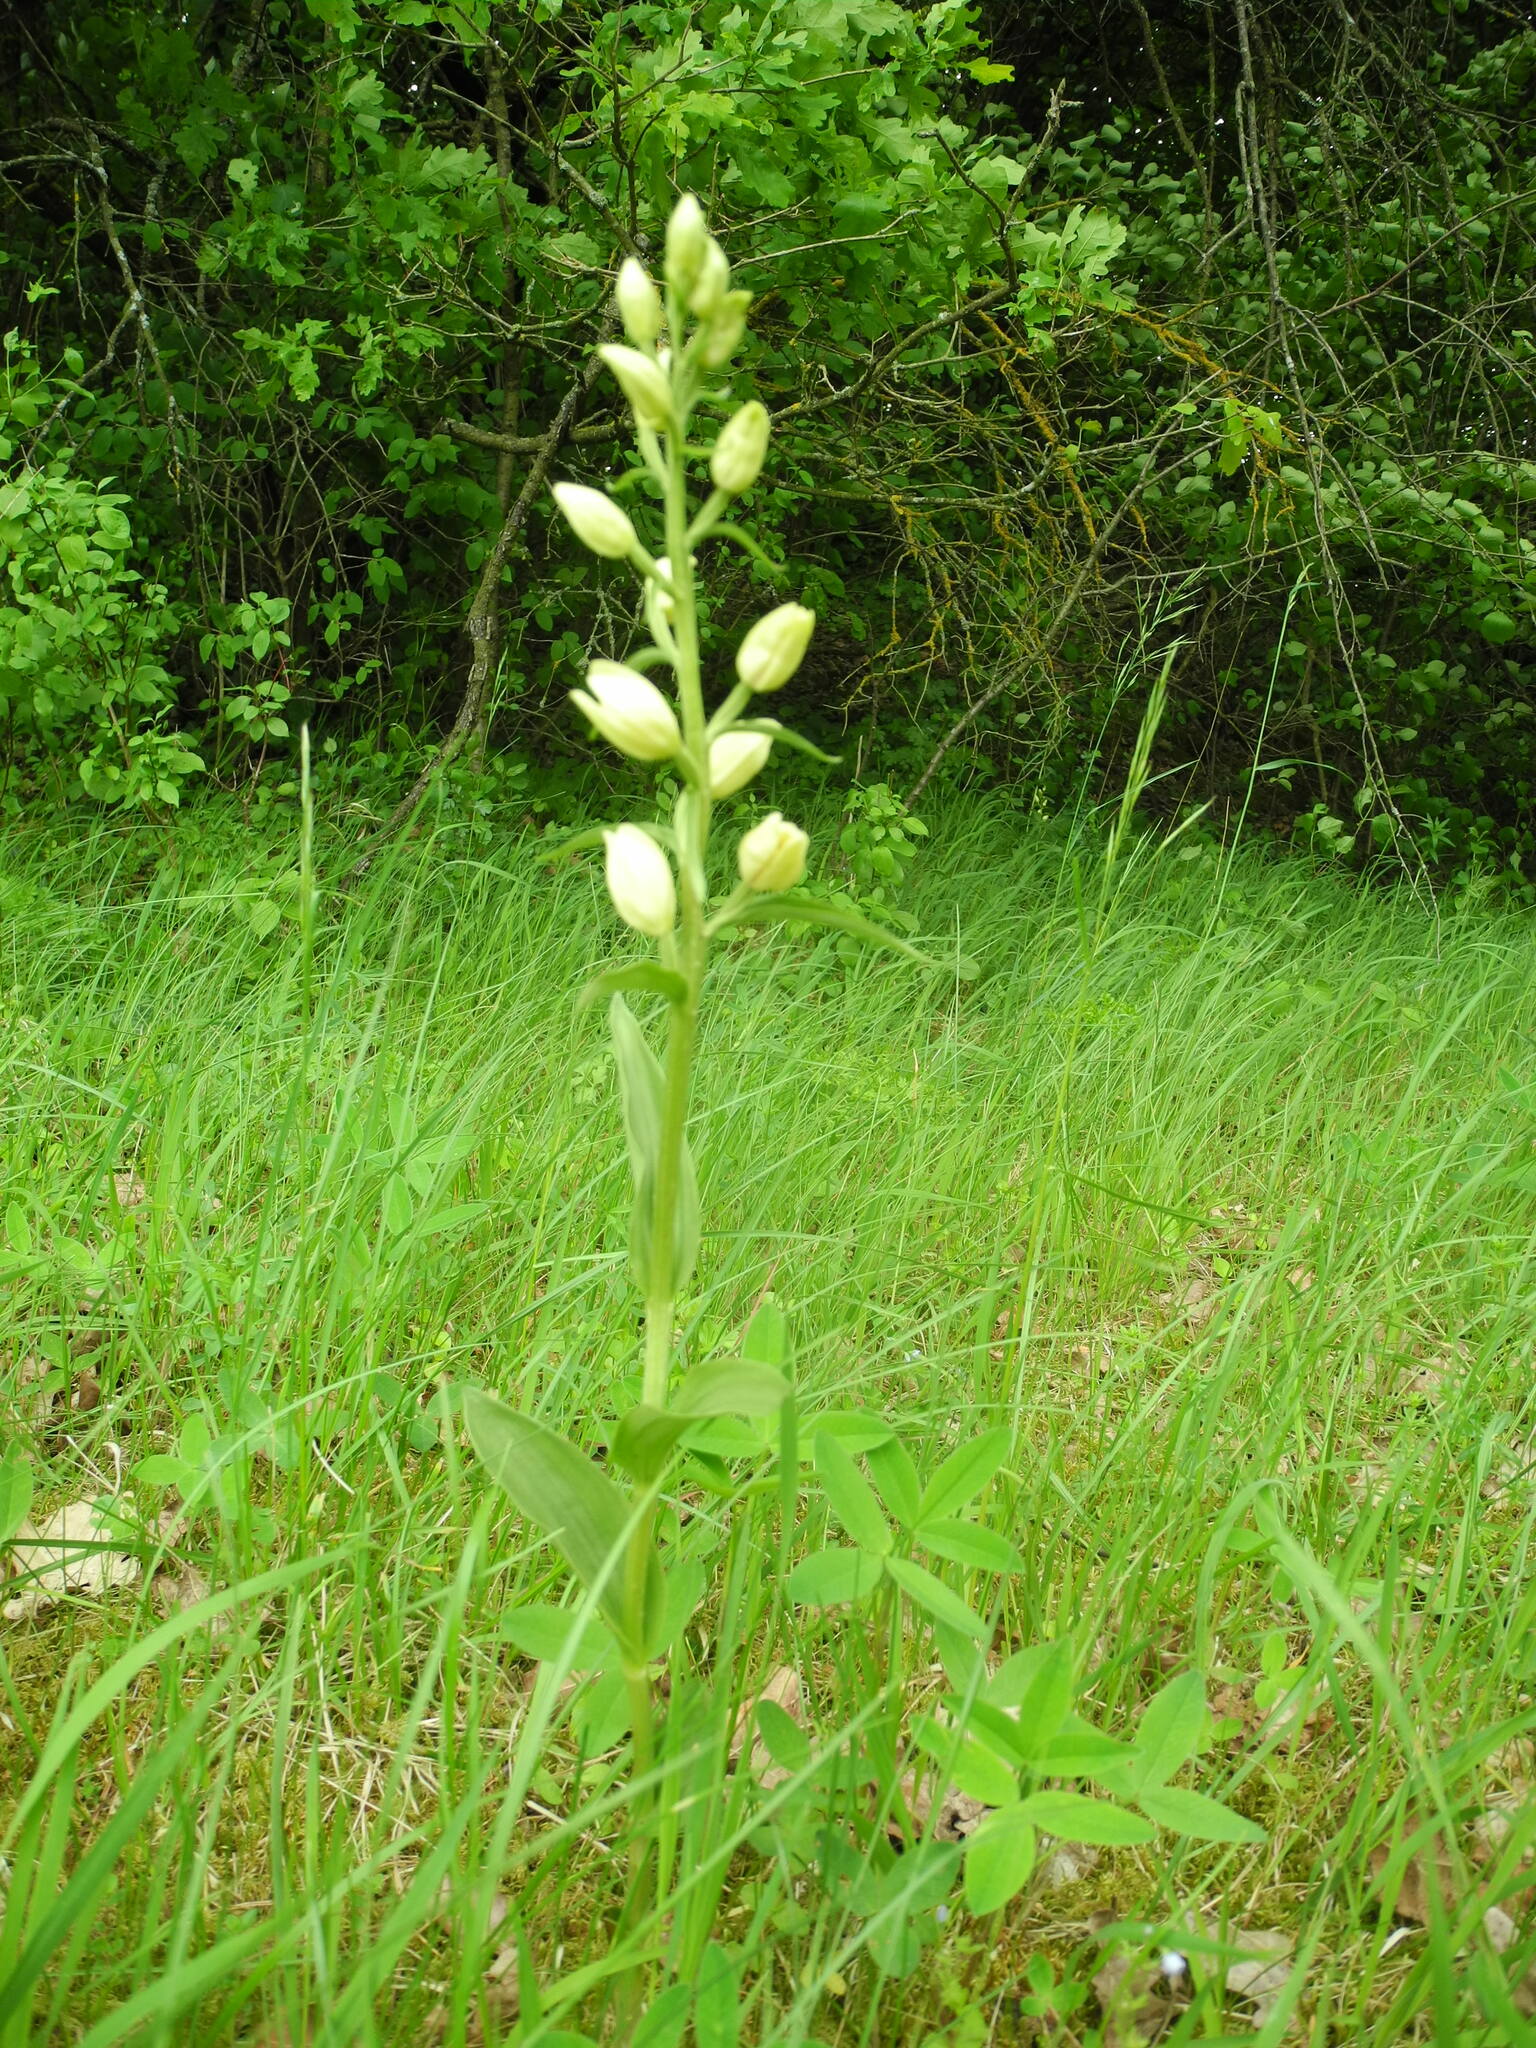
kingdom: Plantae
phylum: Tracheophyta
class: Liliopsida
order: Asparagales
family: Orchidaceae
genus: Cephalanthera
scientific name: Cephalanthera damasonium
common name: White helleborine
